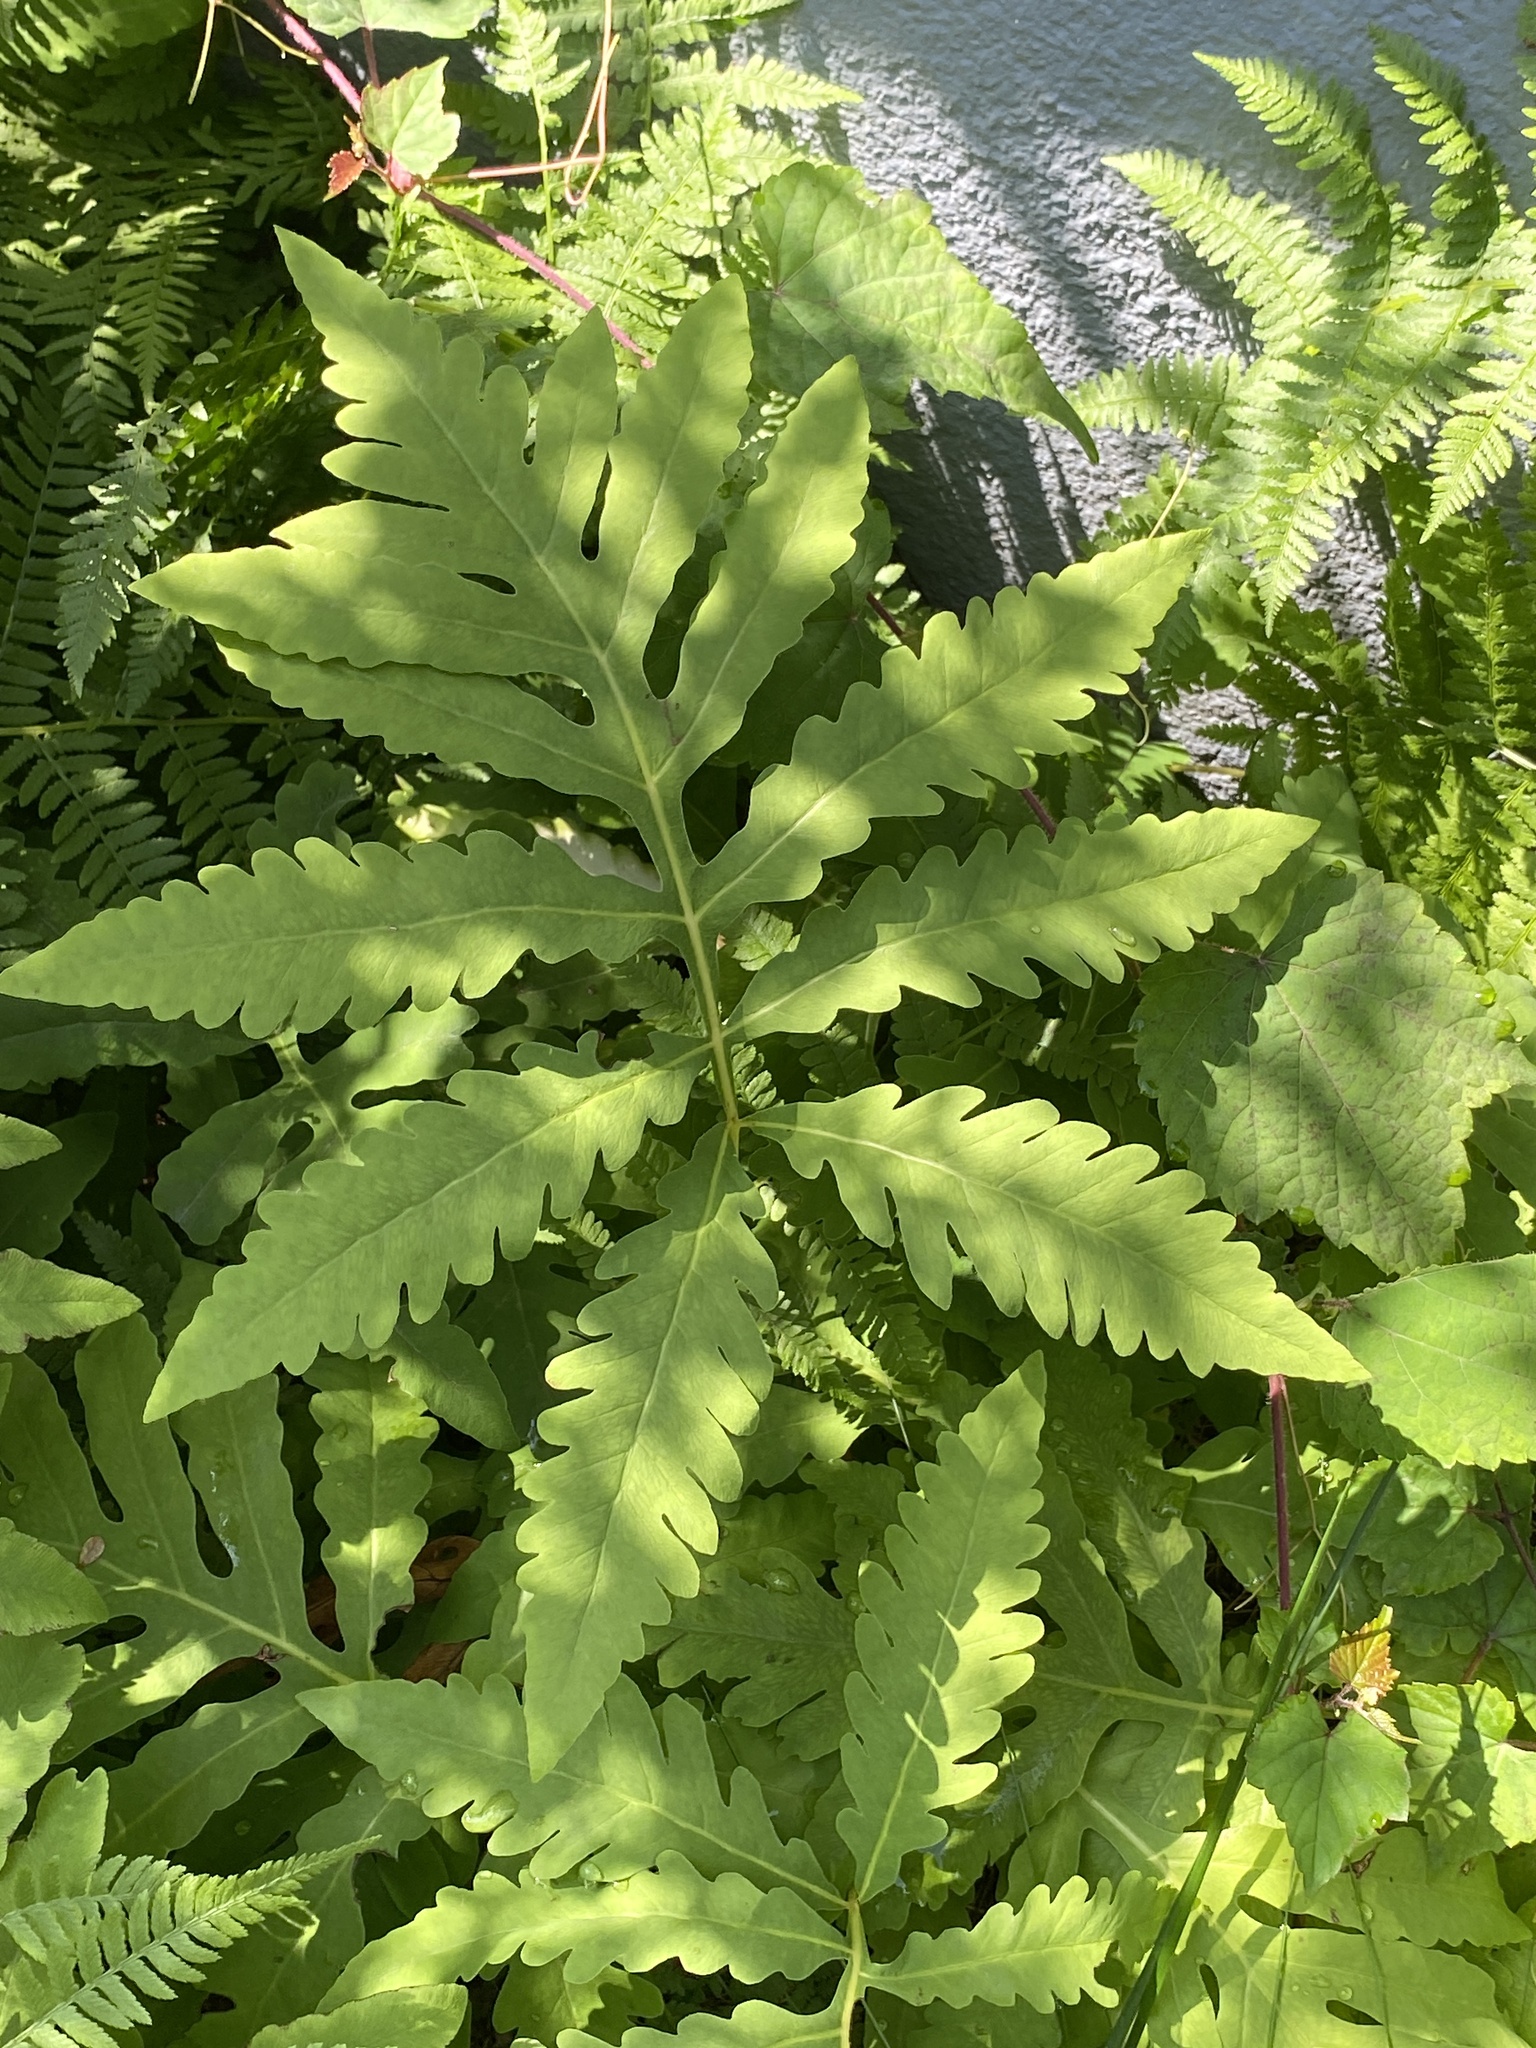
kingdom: Plantae
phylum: Tracheophyta
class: Polypodiopsida
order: Polypodiales
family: Onocleaceae
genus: Onoclea
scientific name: Onoclea sensibilis
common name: Sensitive fern
